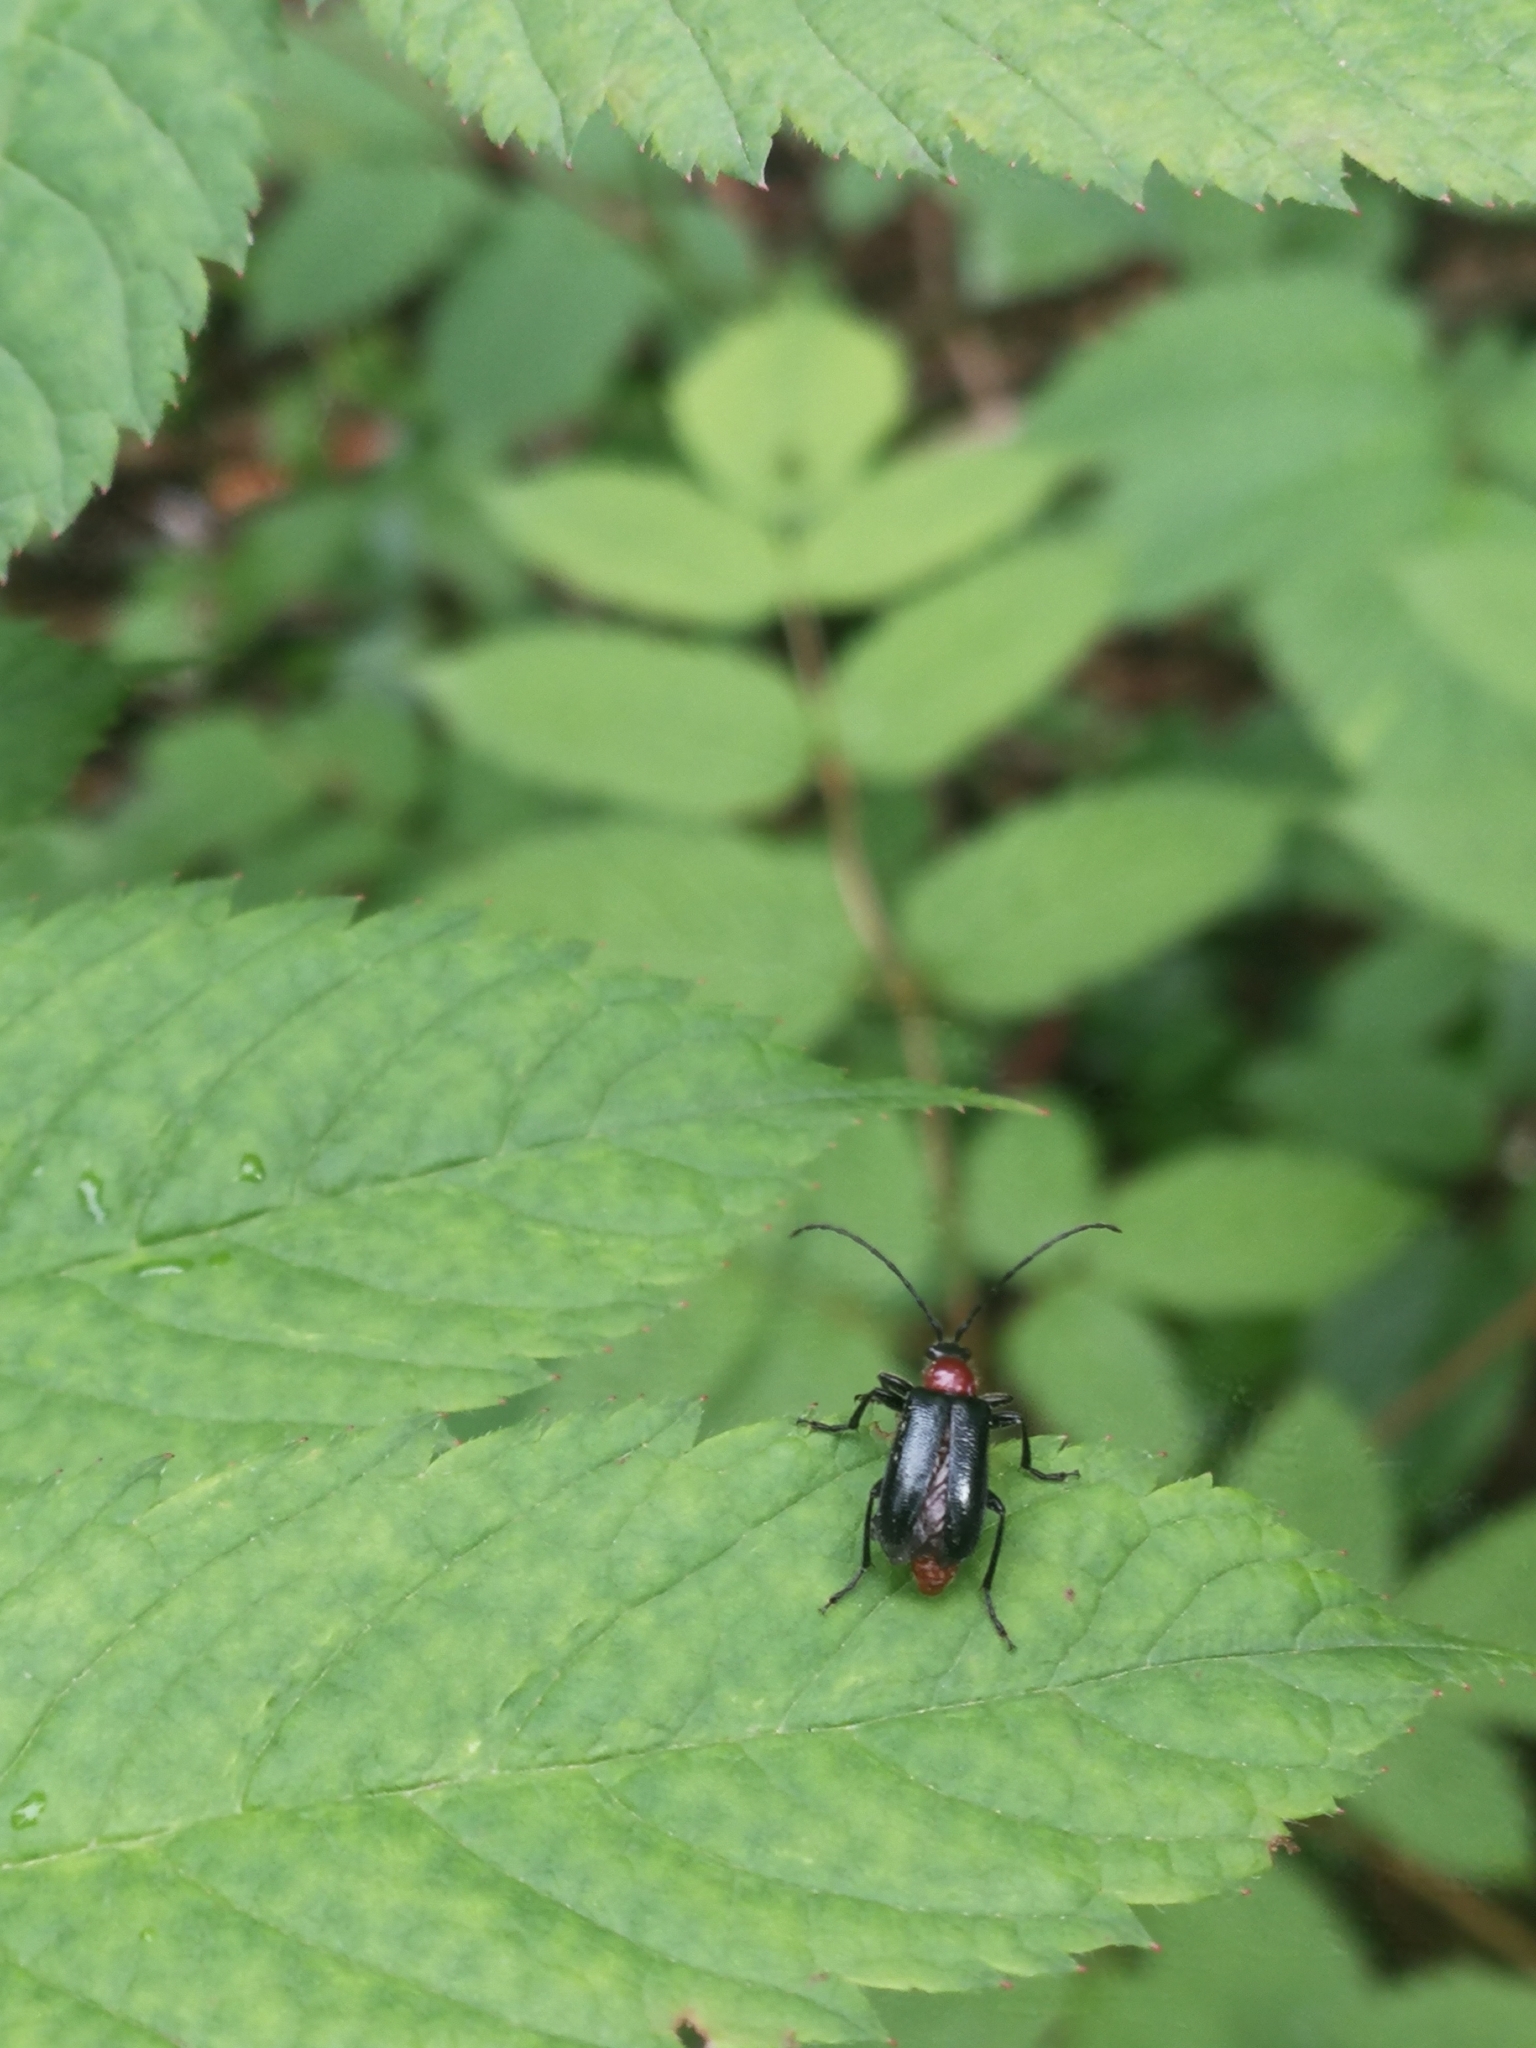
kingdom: Animalia
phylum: Arthropoda
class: Insecta
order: Coleoptera
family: Cerambycidae
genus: Dinoptera
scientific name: Dinoptera collaris
